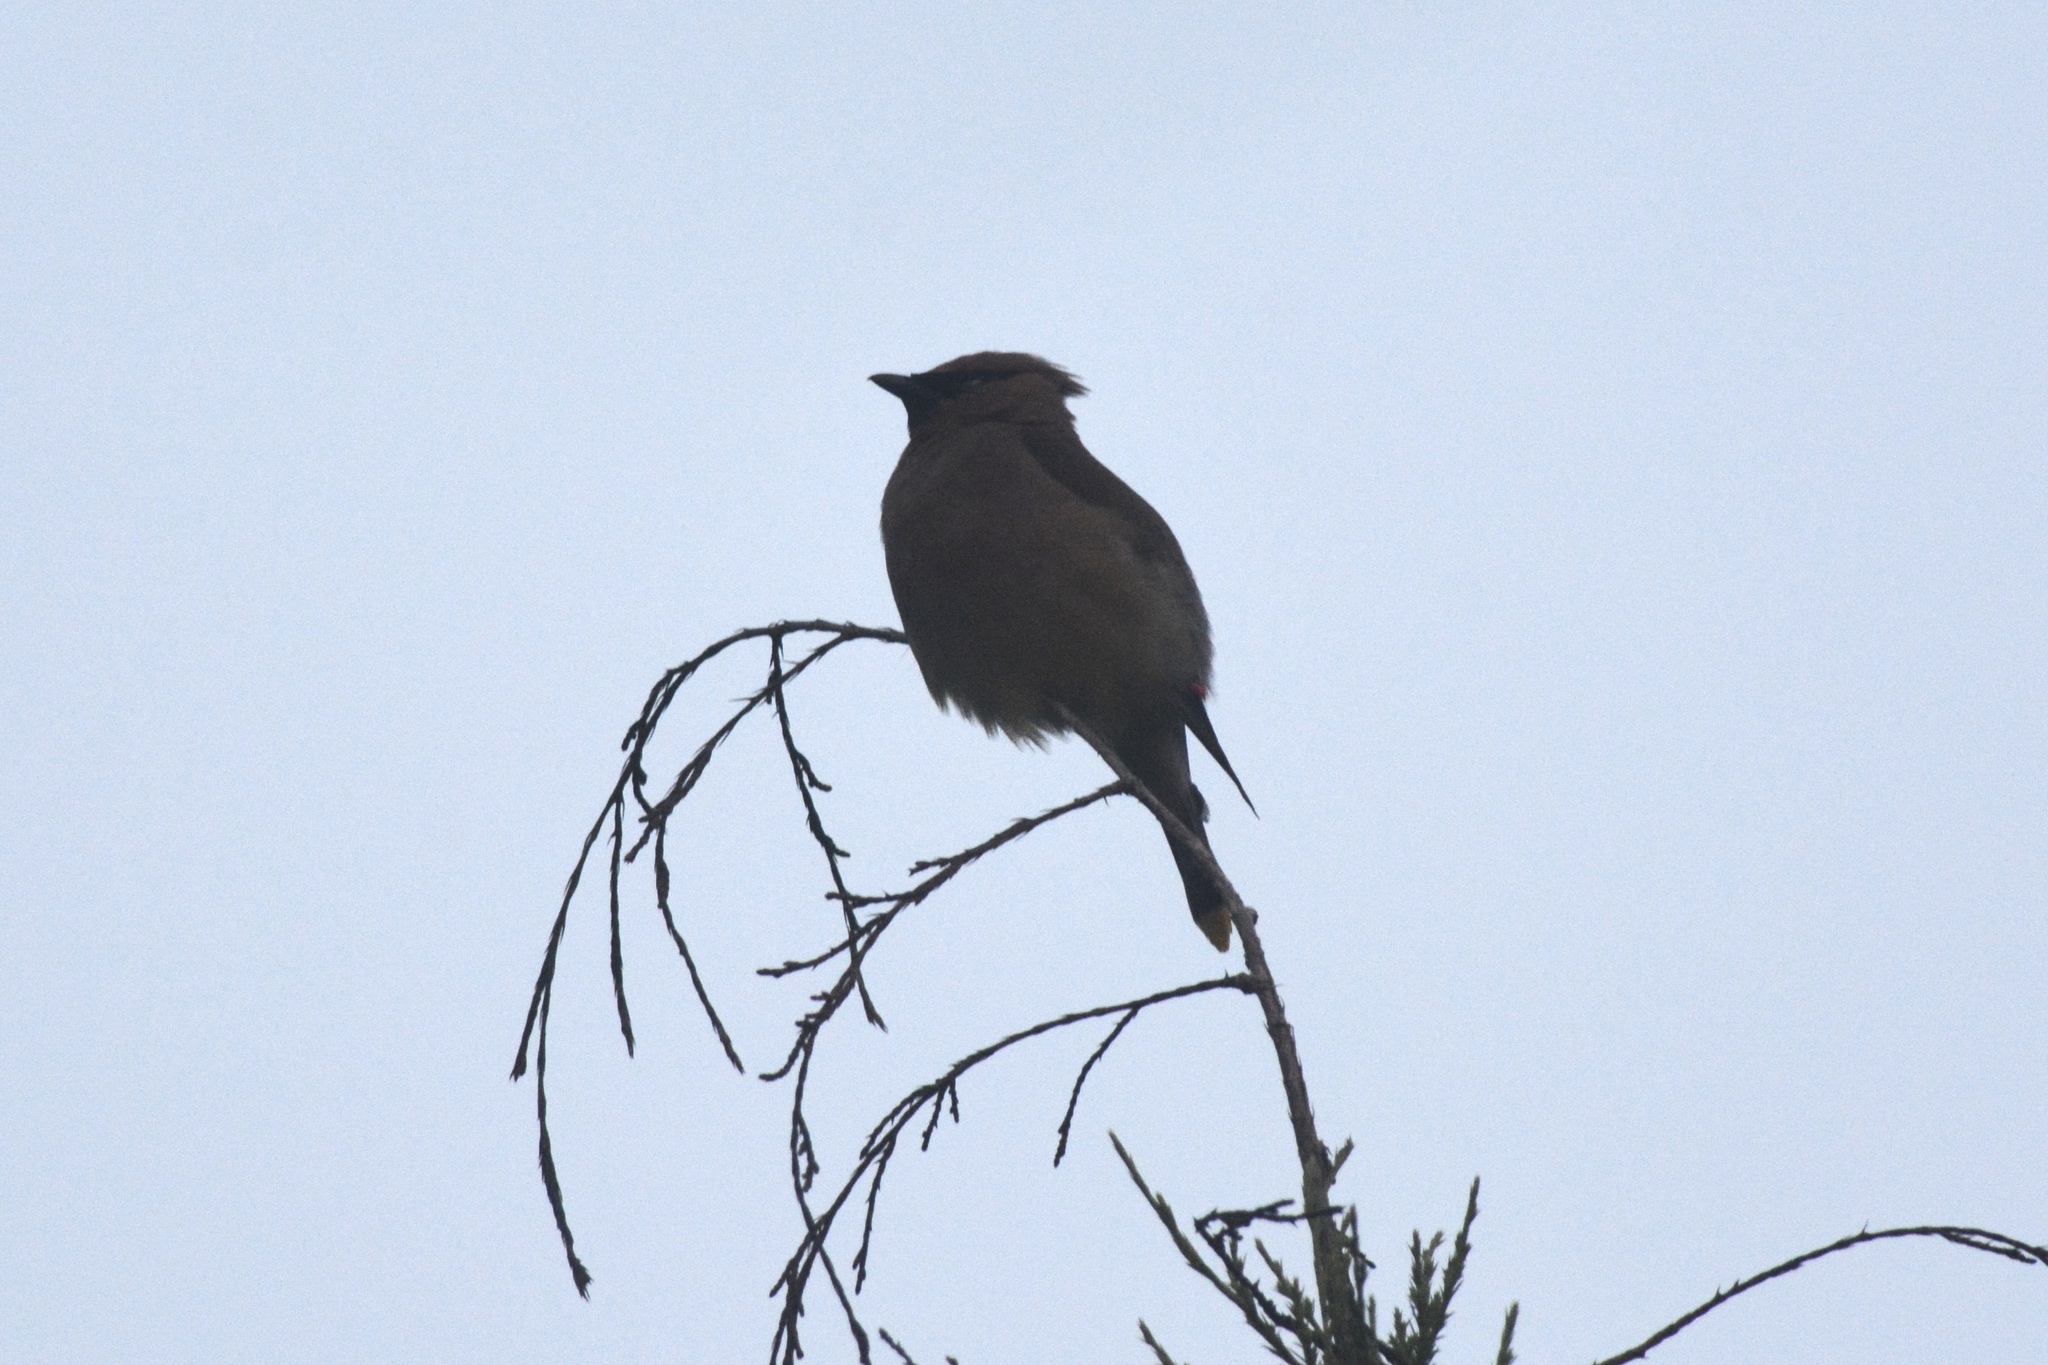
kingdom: Animalia
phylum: Chordata
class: Aves
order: Passeriformes
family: Bombycillidae
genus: Bombycilla
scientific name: Bombycilla cedrorum
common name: Cedar waxwing
